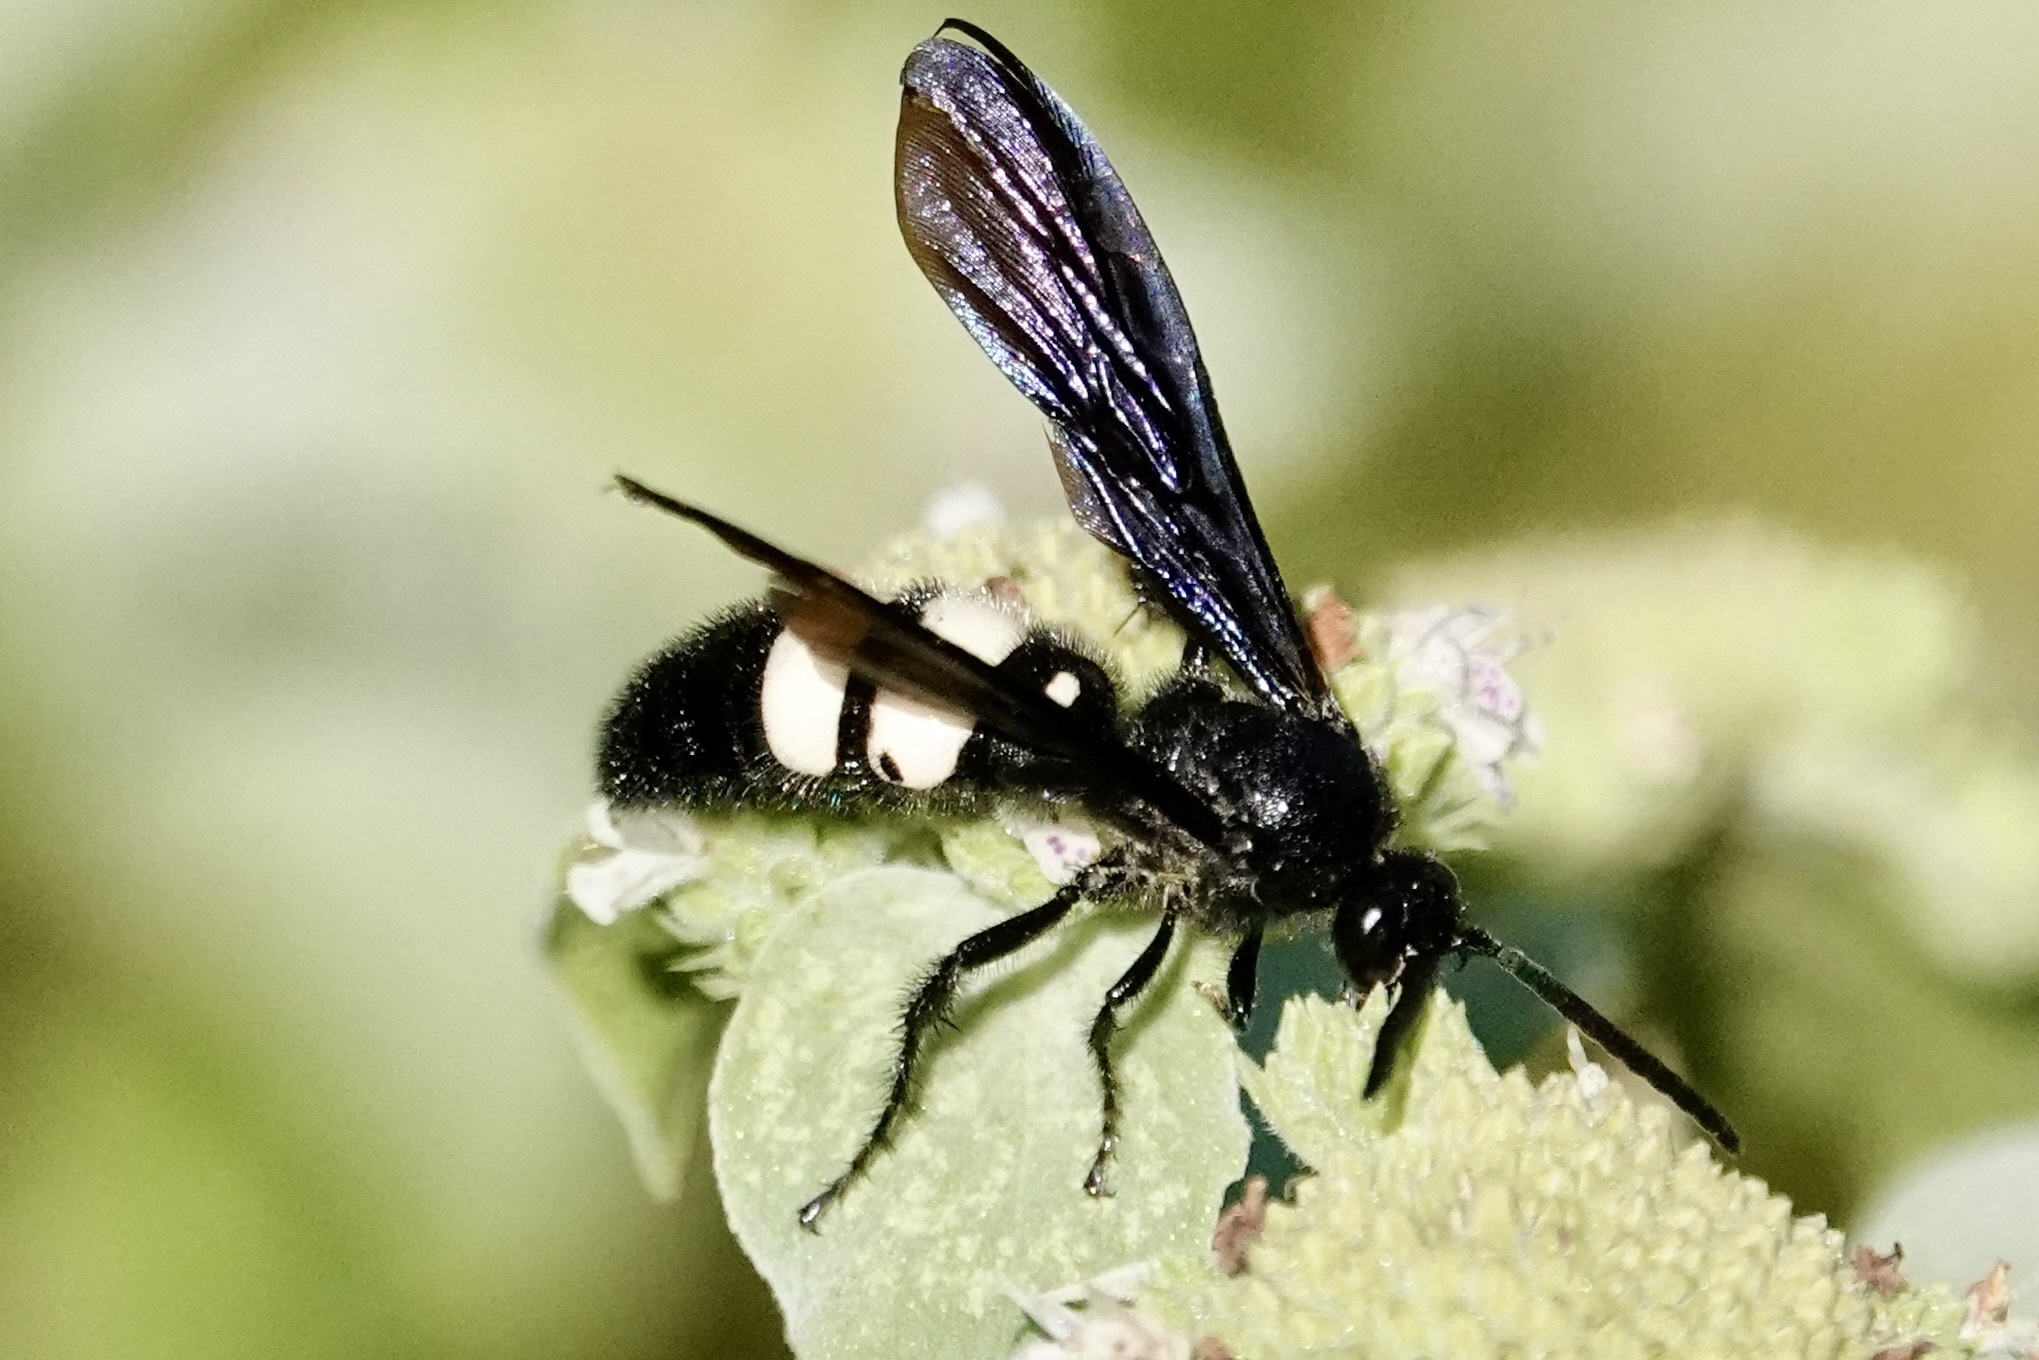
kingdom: Animalia
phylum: Arthropoda
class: Insecta
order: Hymenoptera
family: Scoliidae
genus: Scolia
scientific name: Scolia bicincta
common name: Double-banded scoliid wasp
